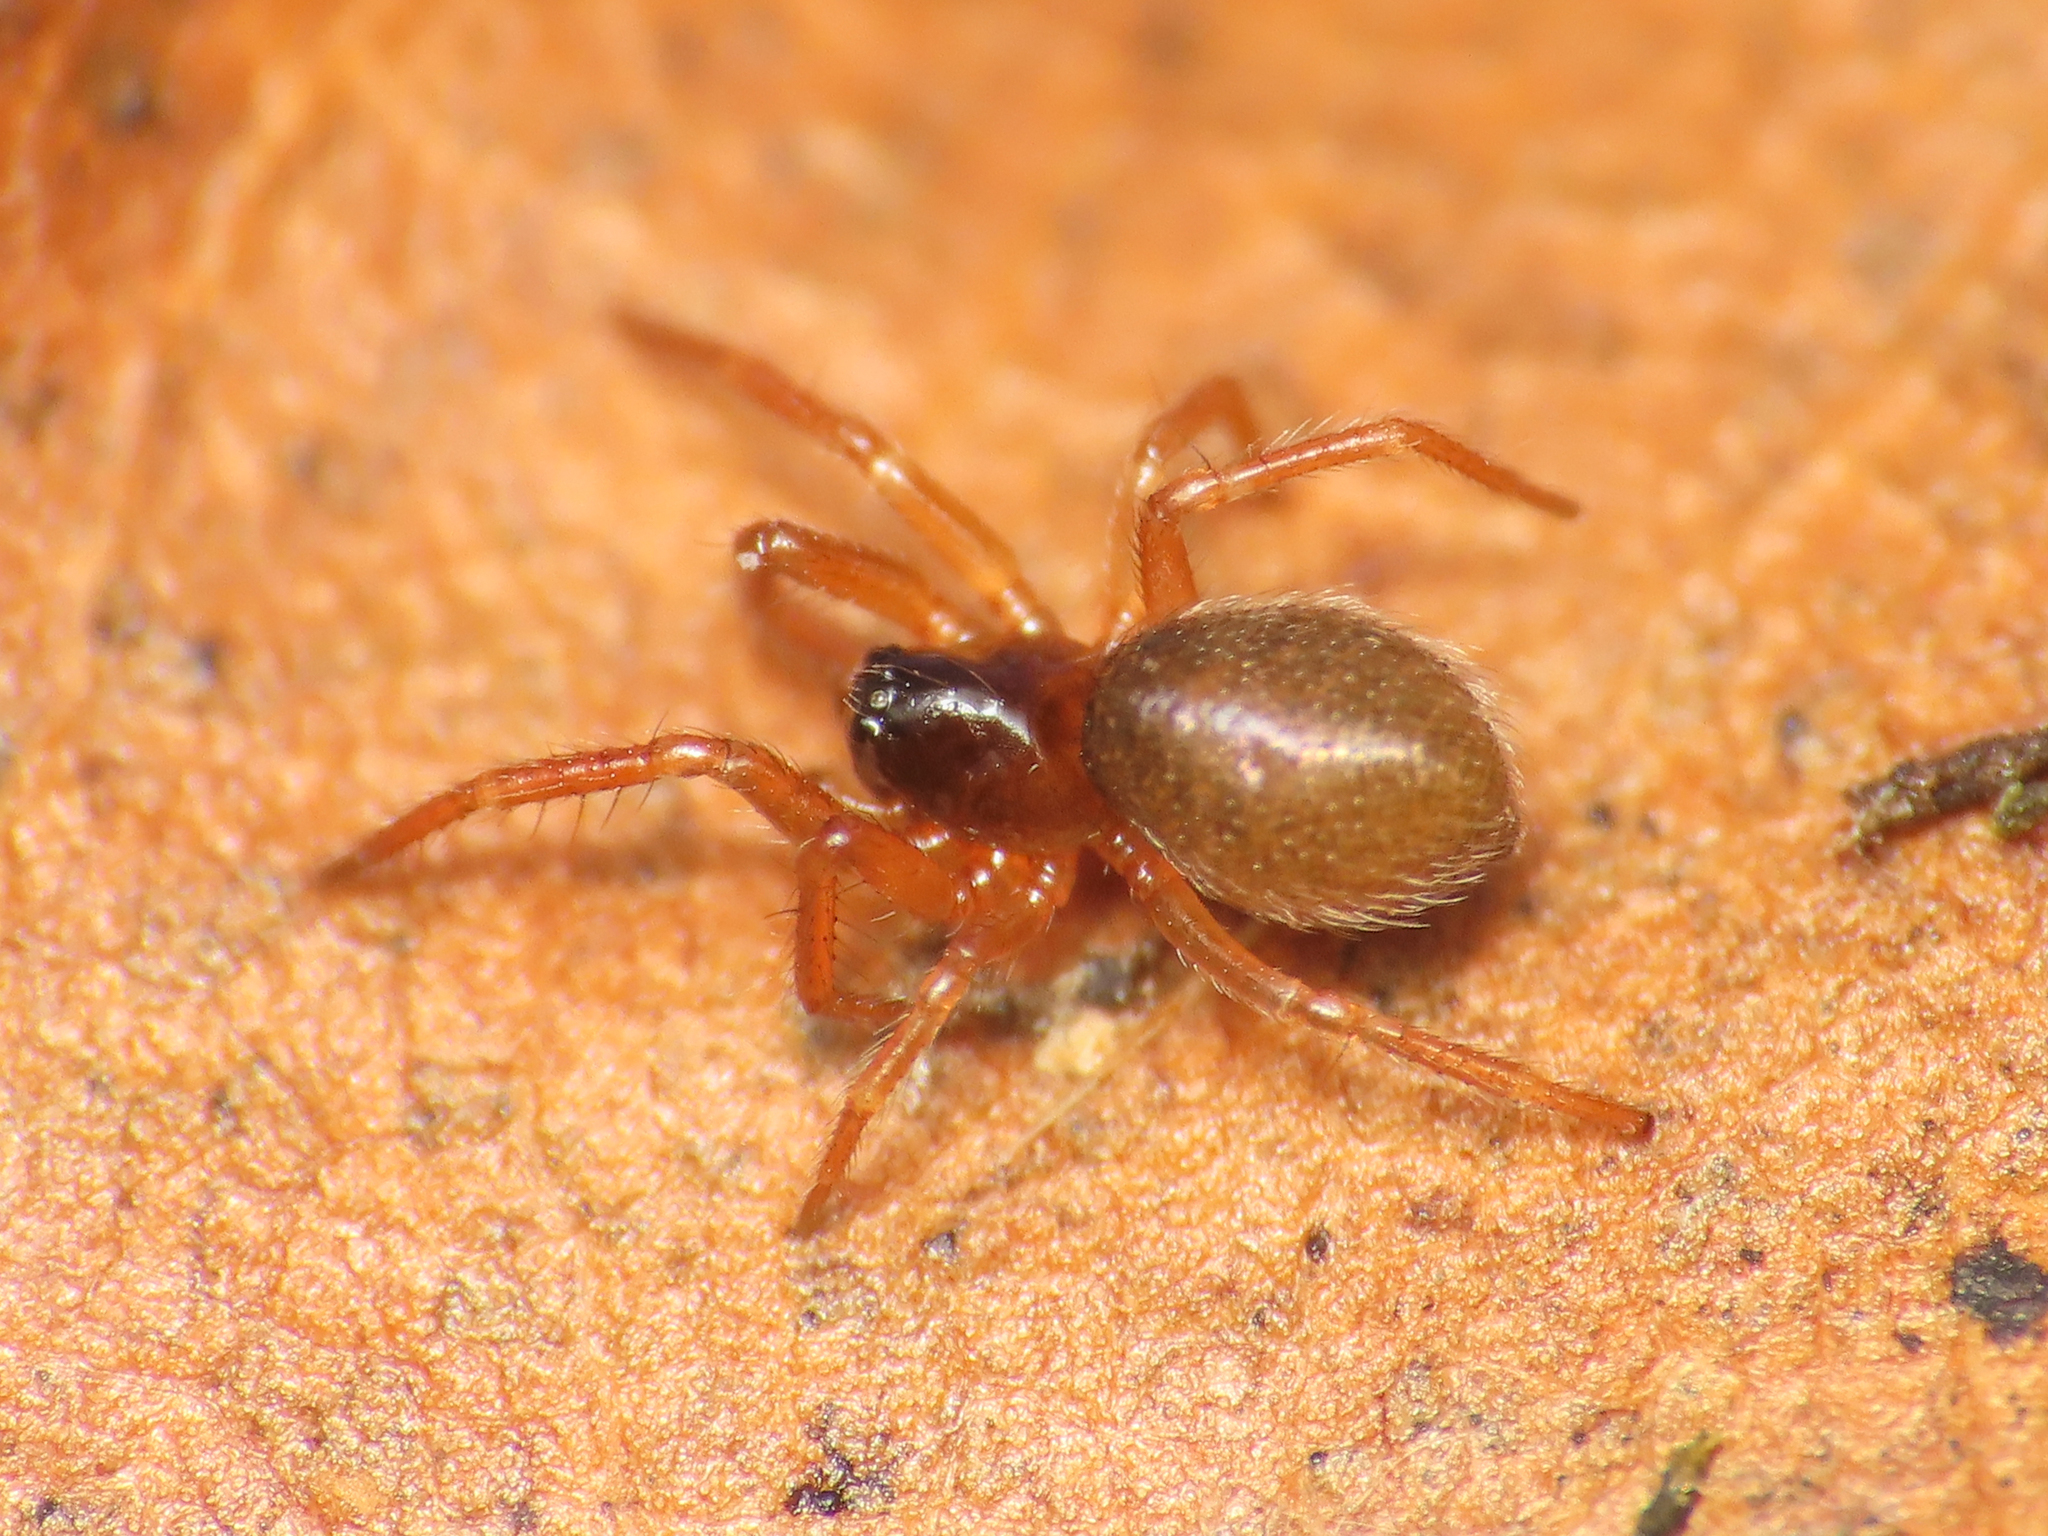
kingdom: Animalia
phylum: Arthropoda
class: Arachnida
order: Araneae
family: Linyphiidae
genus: Maso
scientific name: Maso sundevalli
